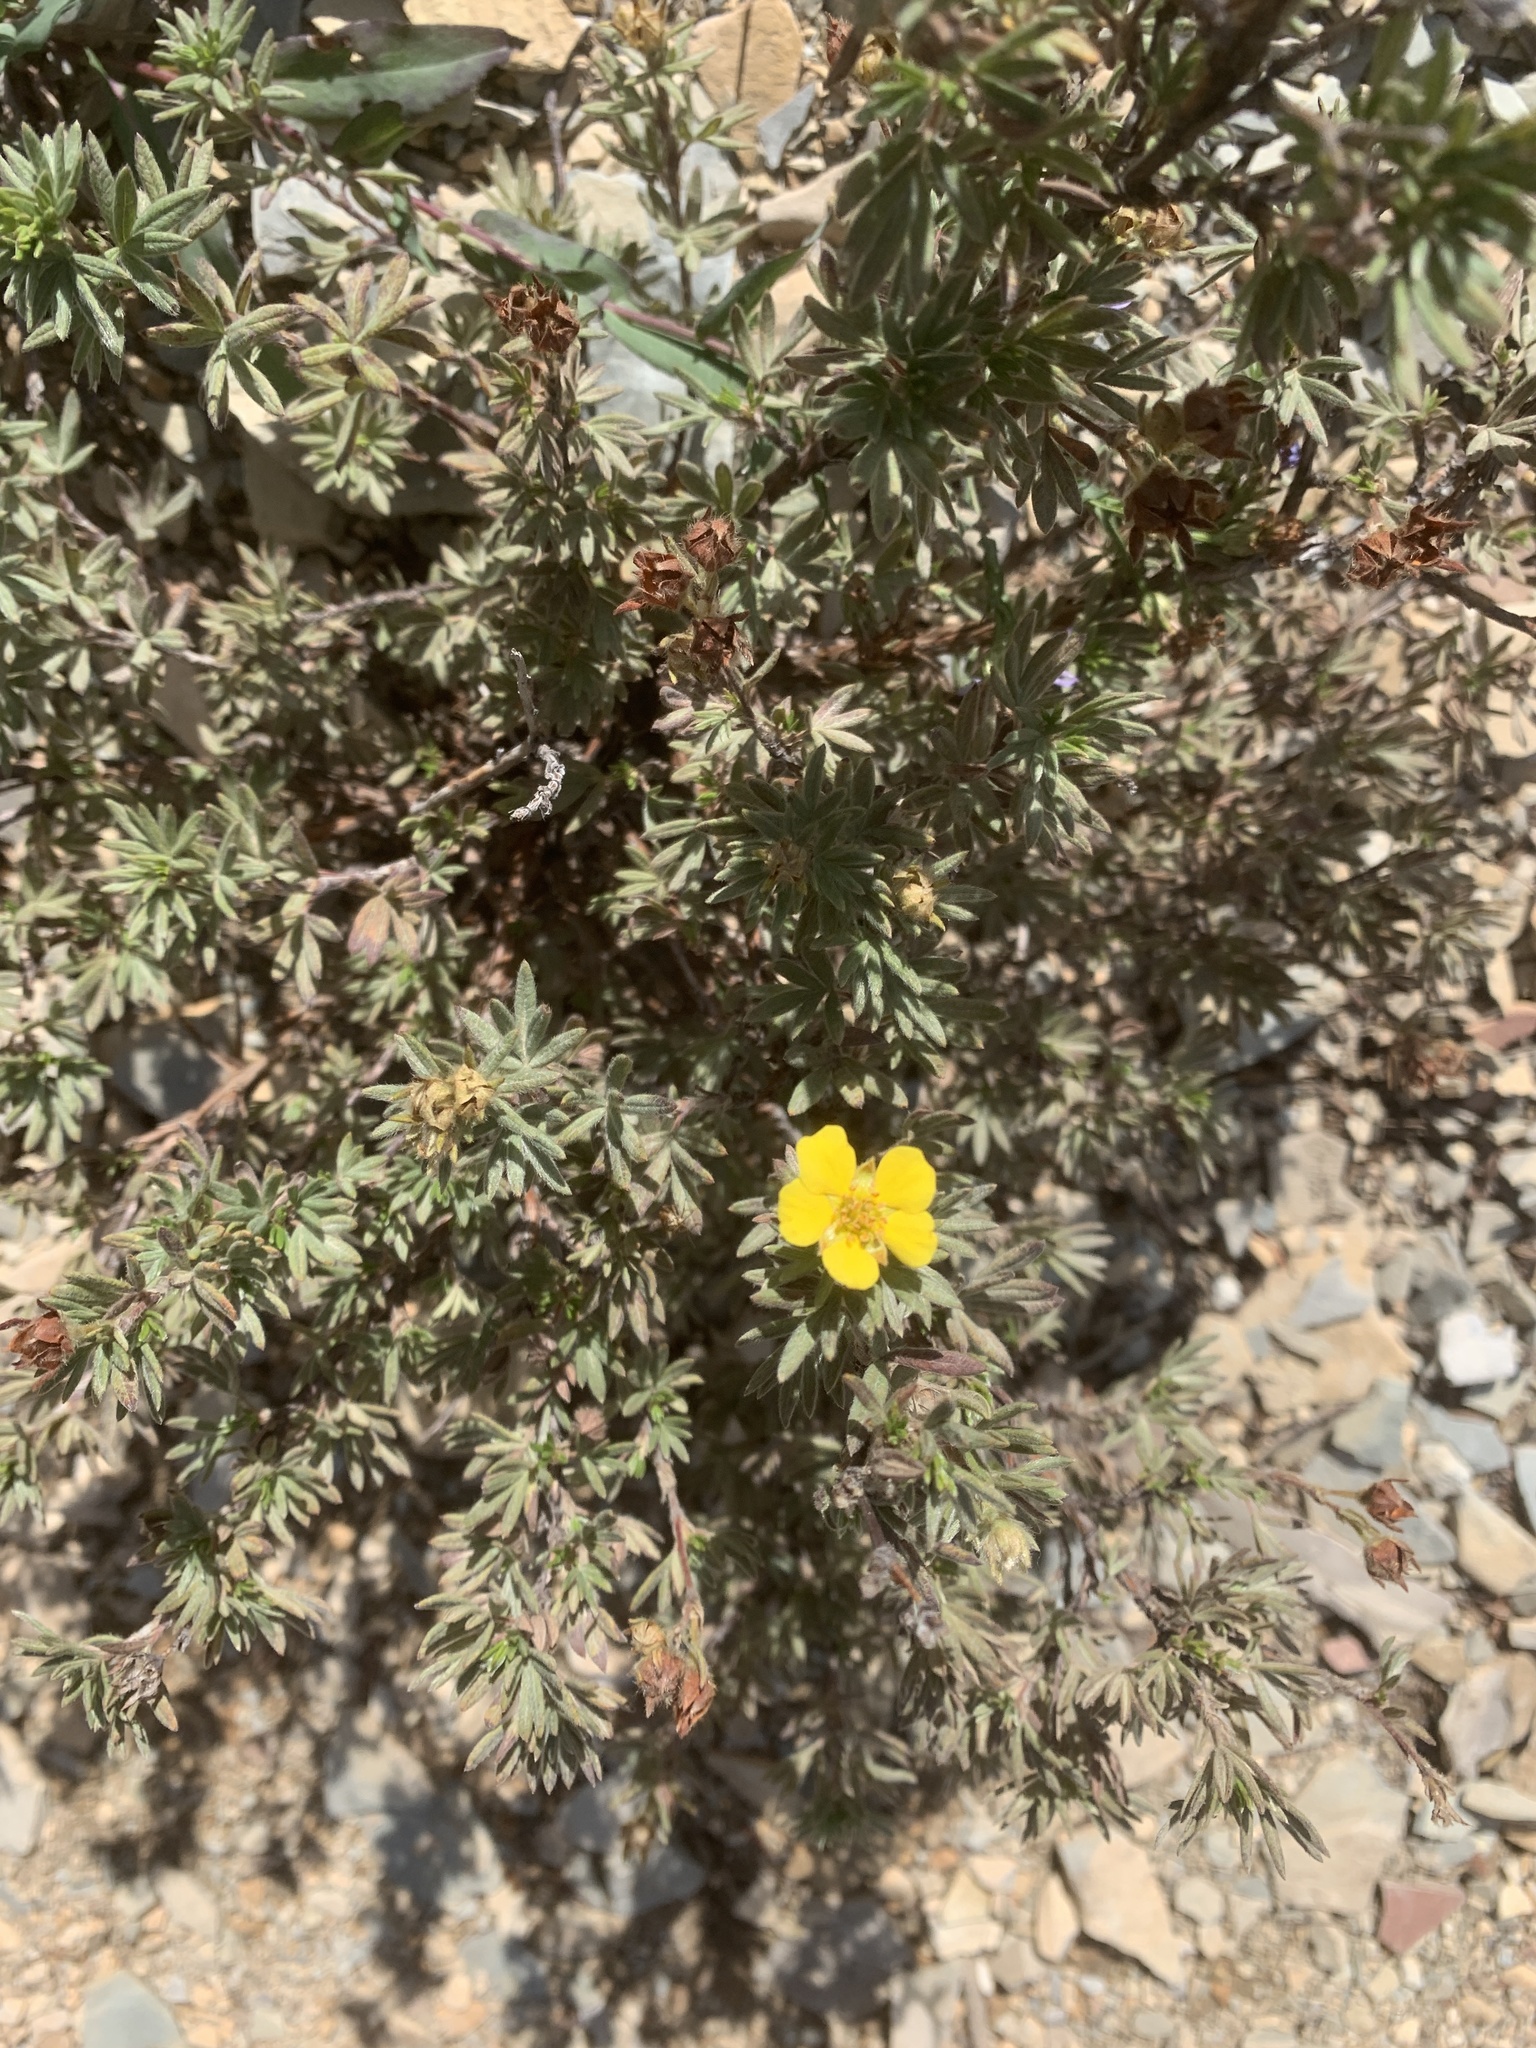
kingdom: Plantae
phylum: Tracheophyta
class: Magnoliopsida
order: Rosales
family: Rosaceae
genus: Dasiphora
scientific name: Dasiphora fruticosa
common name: Shrubby cinquefoil
